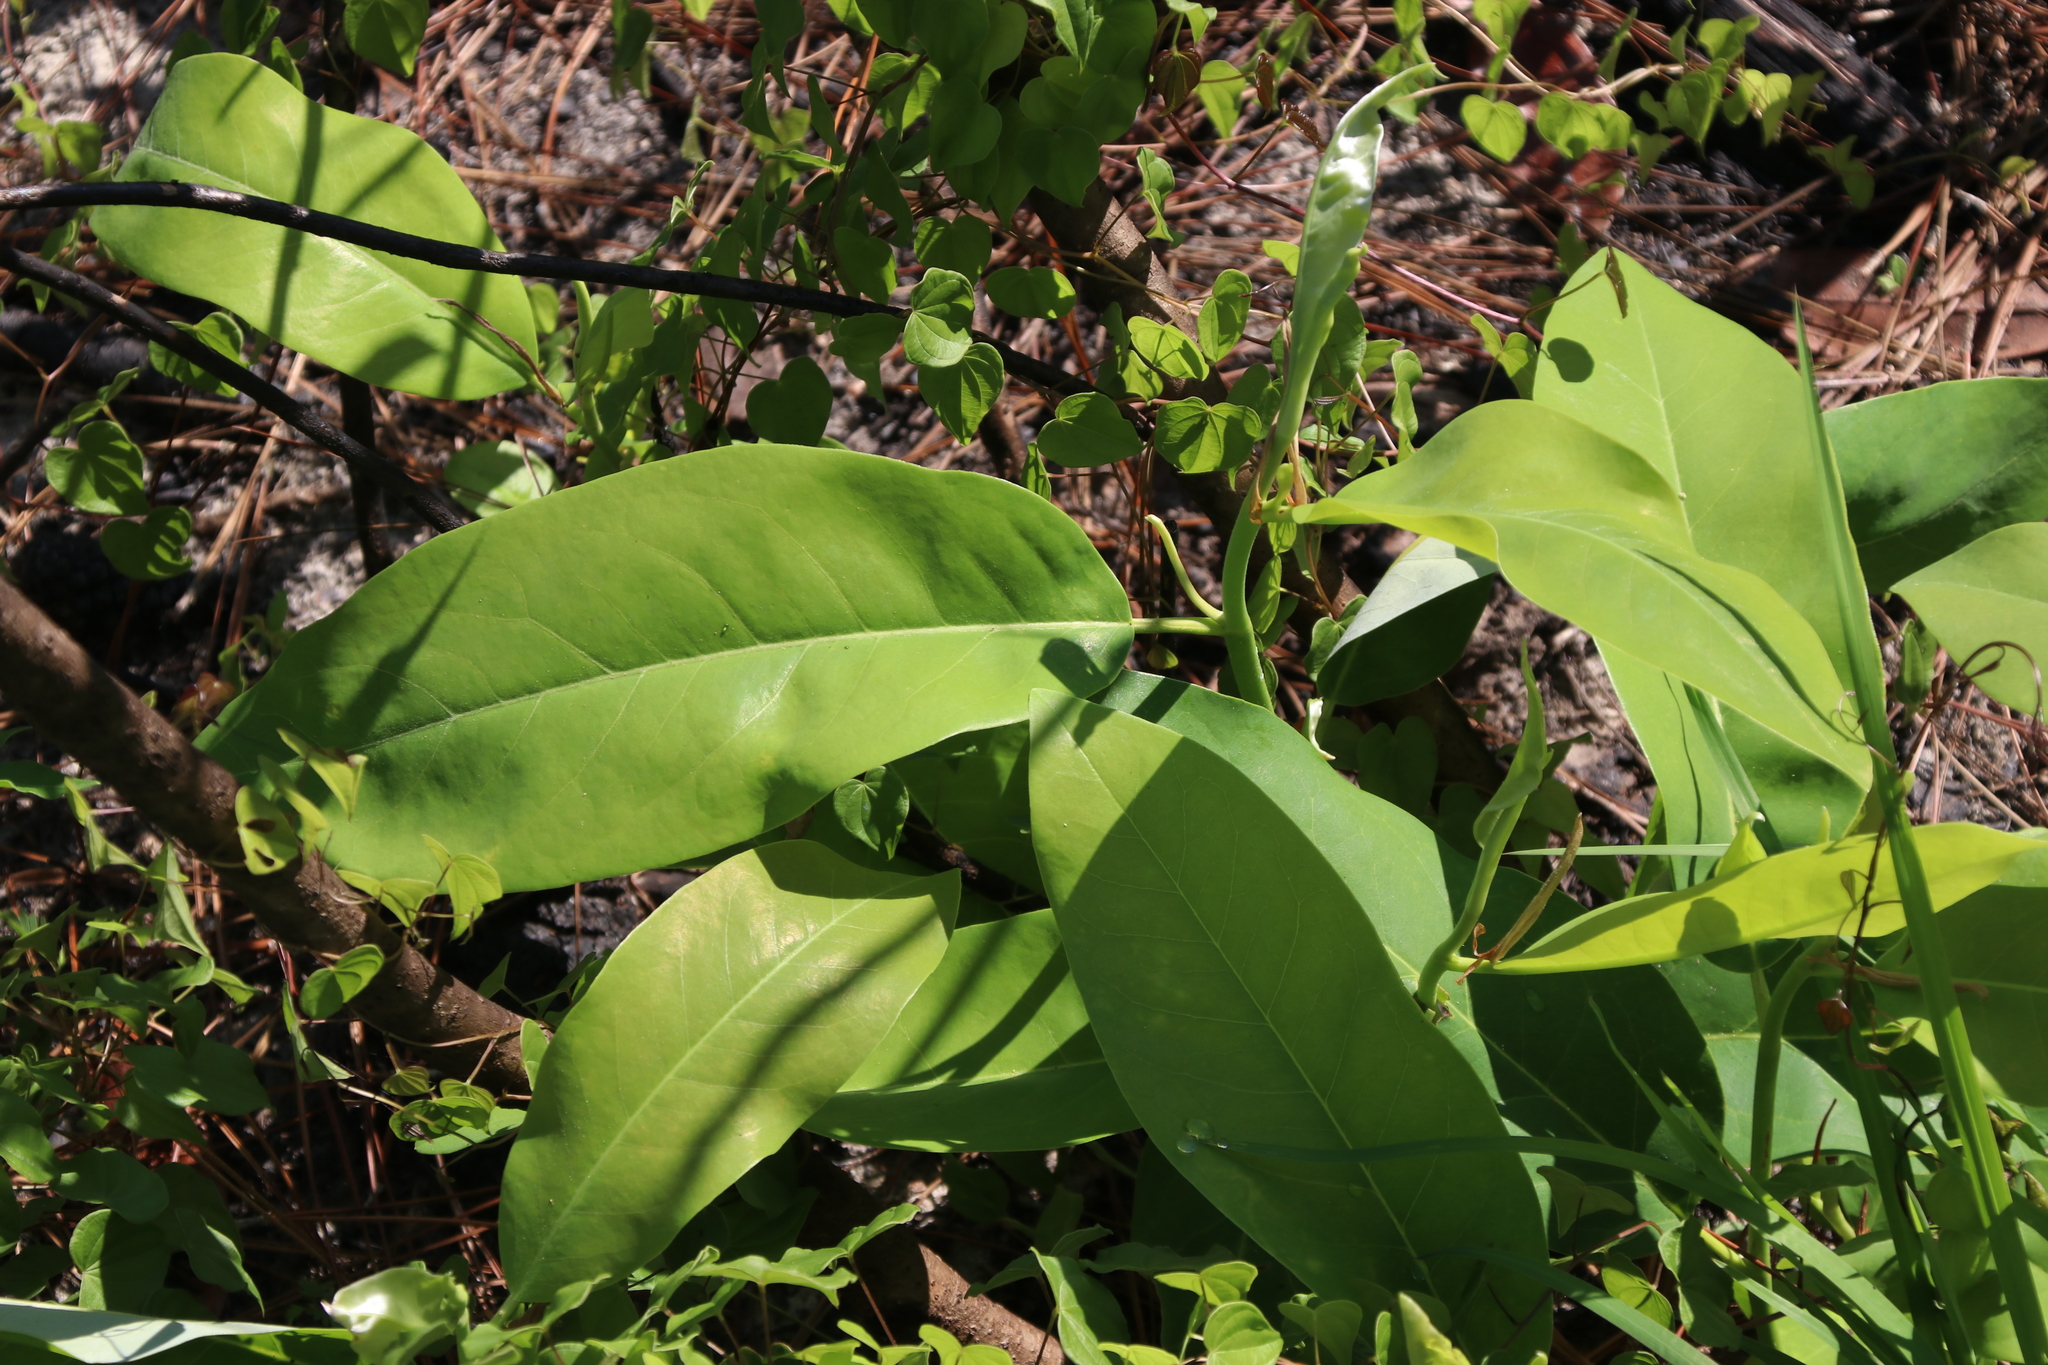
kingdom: Plantae
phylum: Tracheophyta
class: Magnoliopsida
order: Magnoliales
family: Magnoliaceae
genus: Magnolia
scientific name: Magnolia virginiana
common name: Swamp bay
